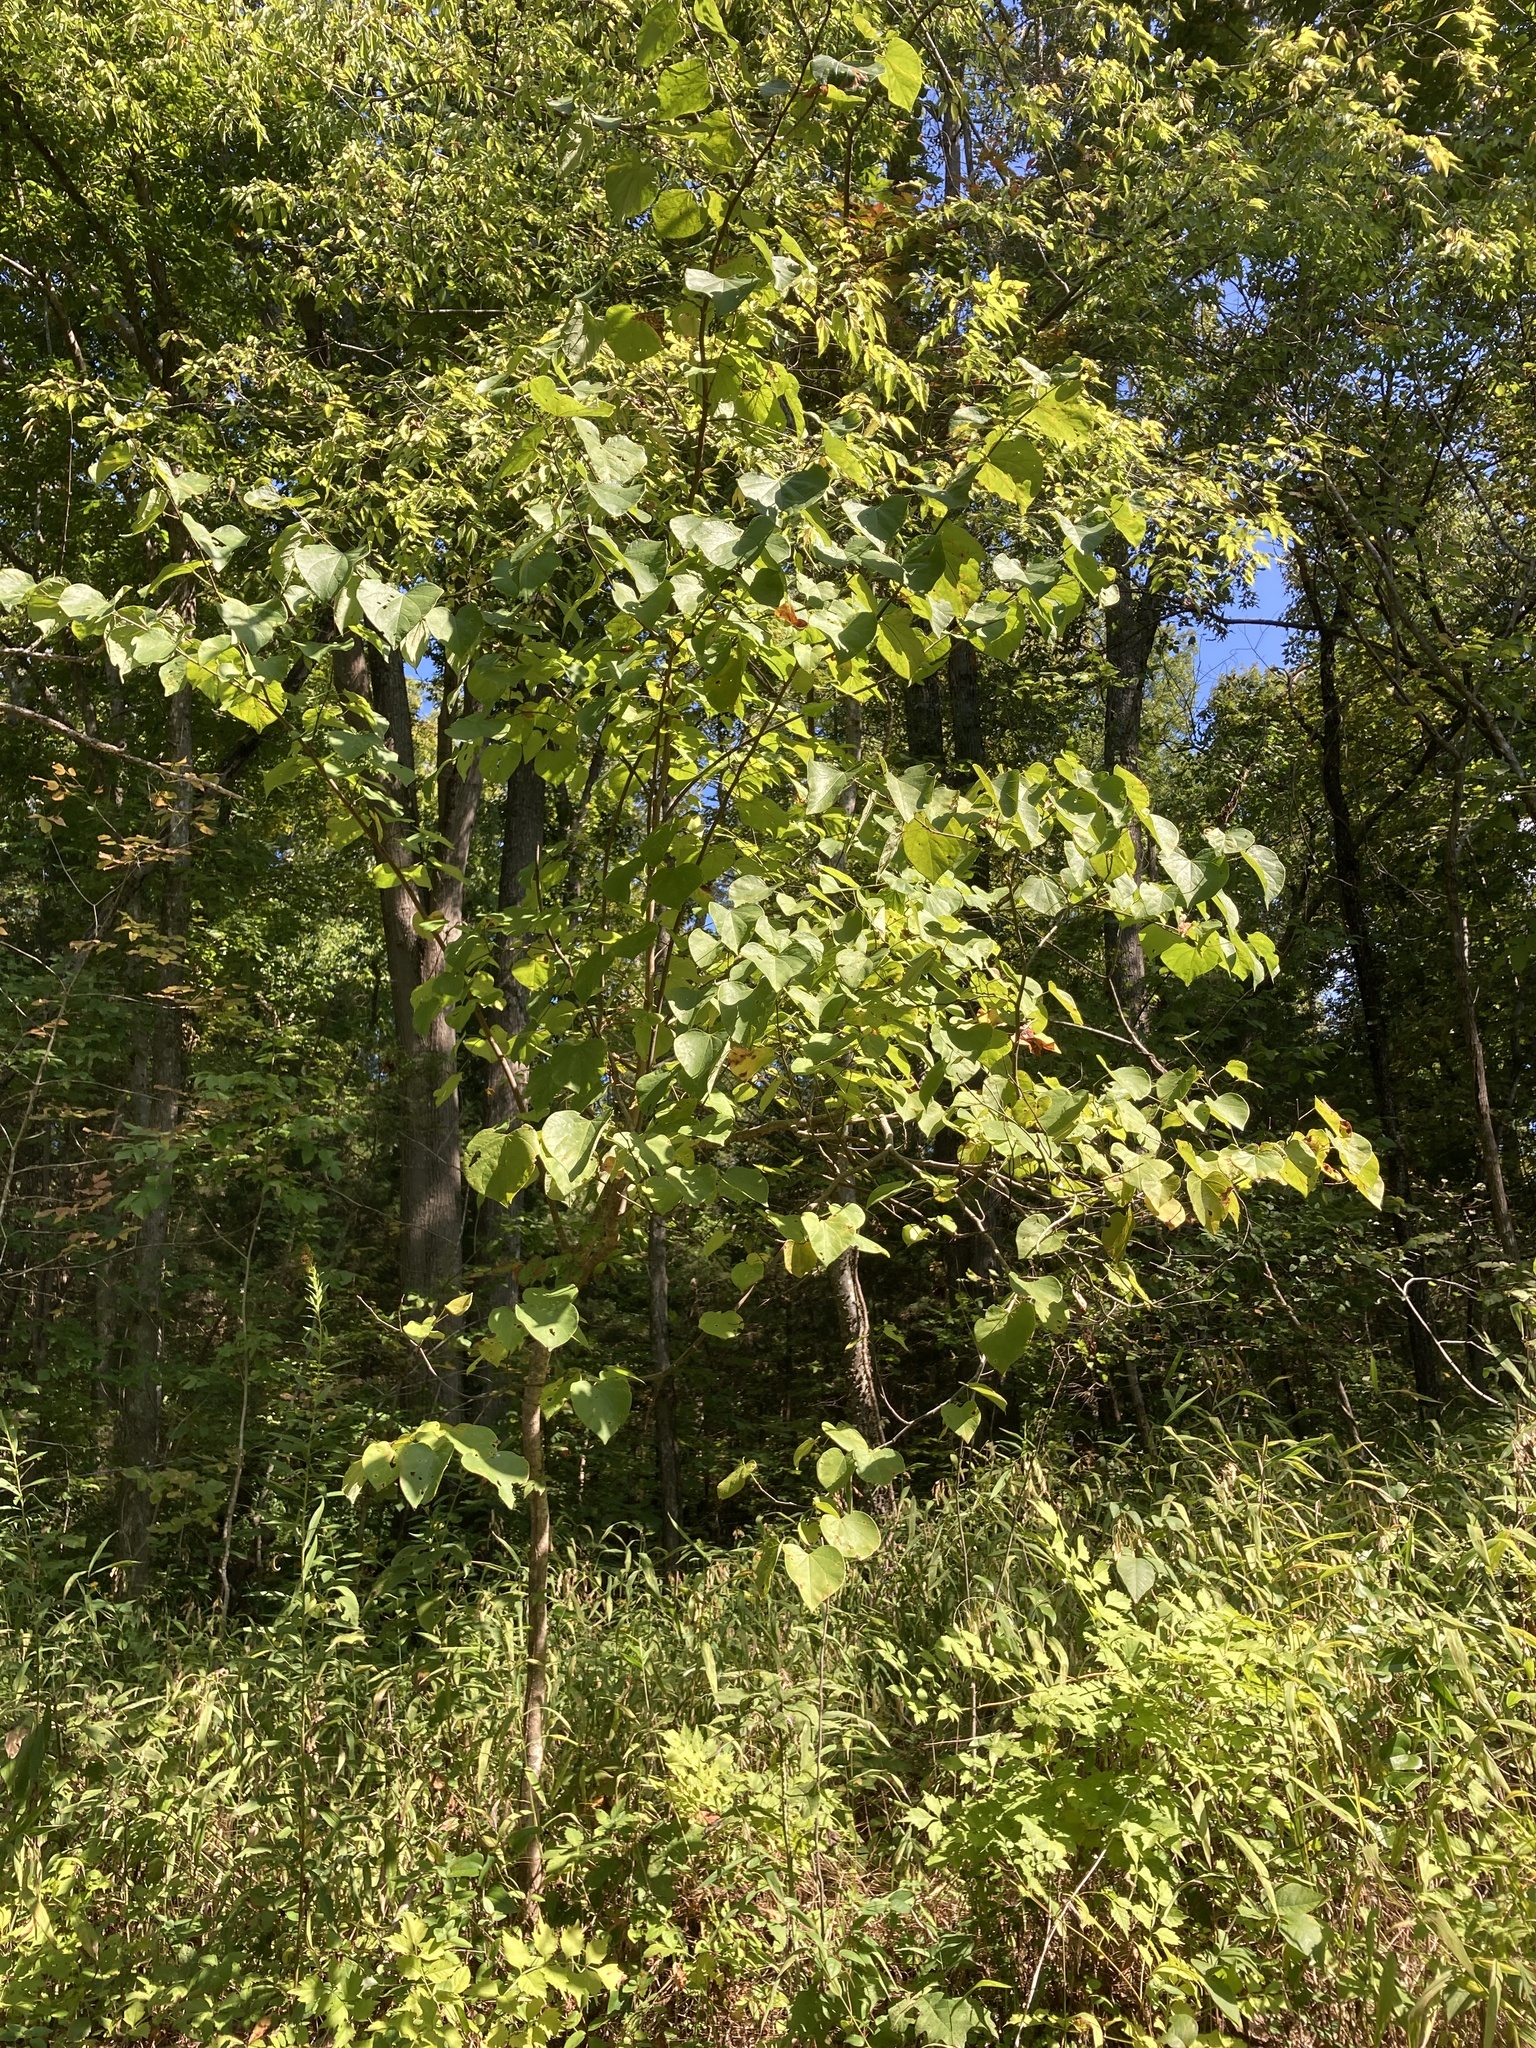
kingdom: Plantae
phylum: Tracheophyta
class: Magnoliopsida
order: Fabales
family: Fabaceae
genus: Cercis
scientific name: Cercis canadensis
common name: Eastern redbud
